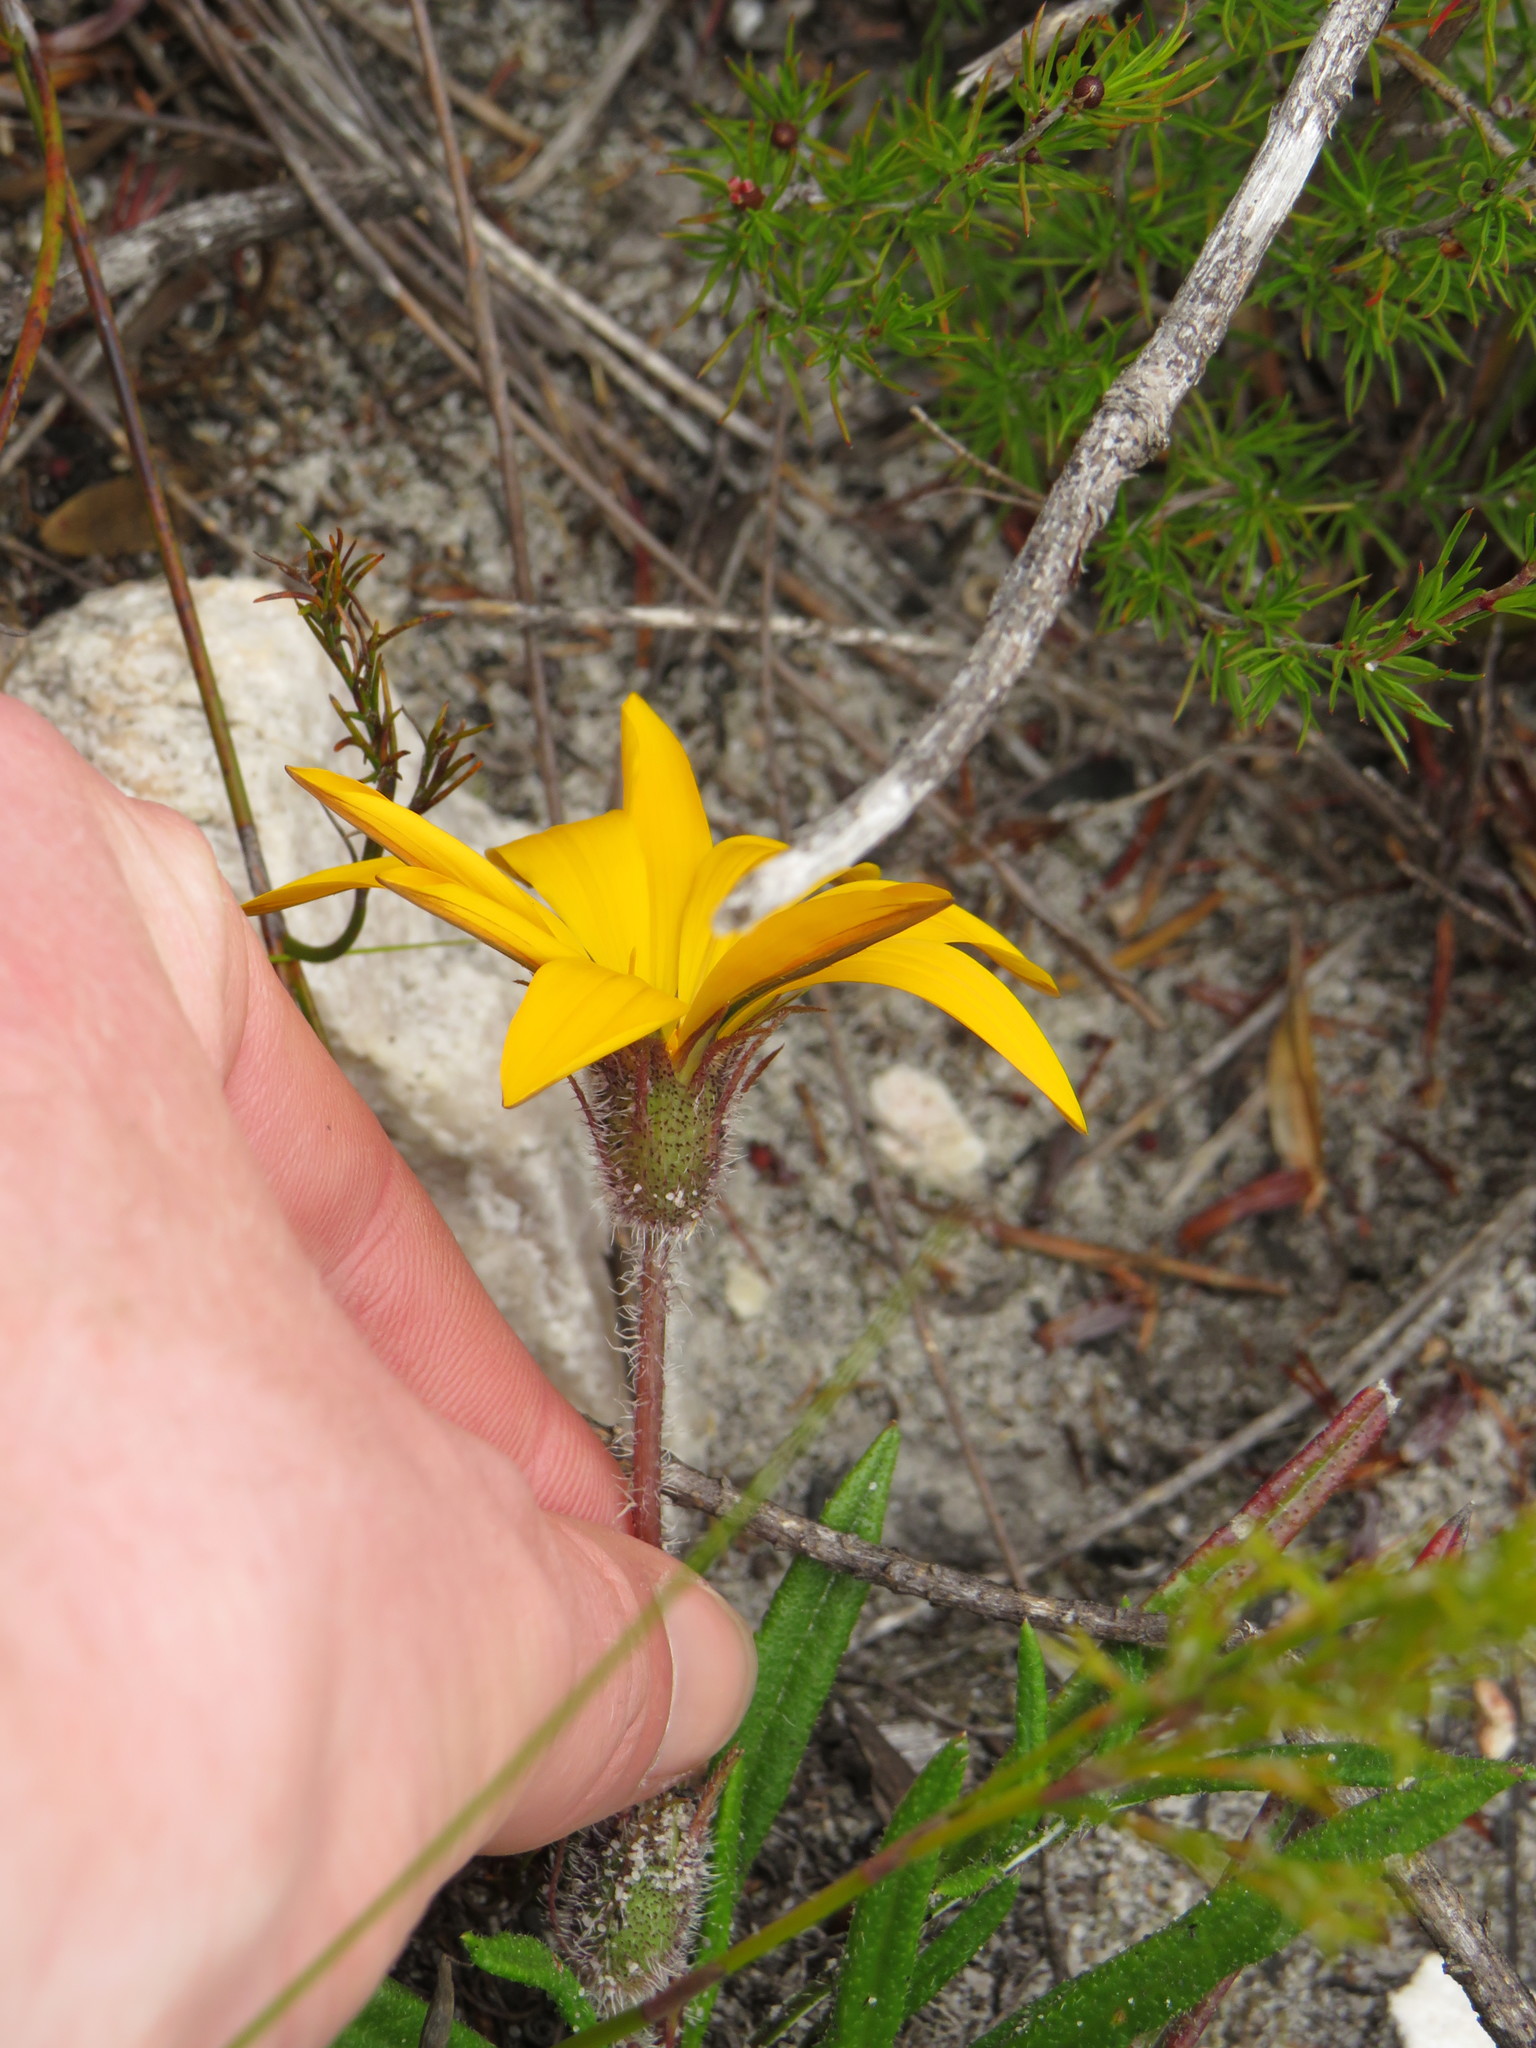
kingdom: Plantae
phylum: Tracheophyta
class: Magnoliopsida
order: Asterales
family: Asteraceae
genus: Gazania
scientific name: Gazania serrata
